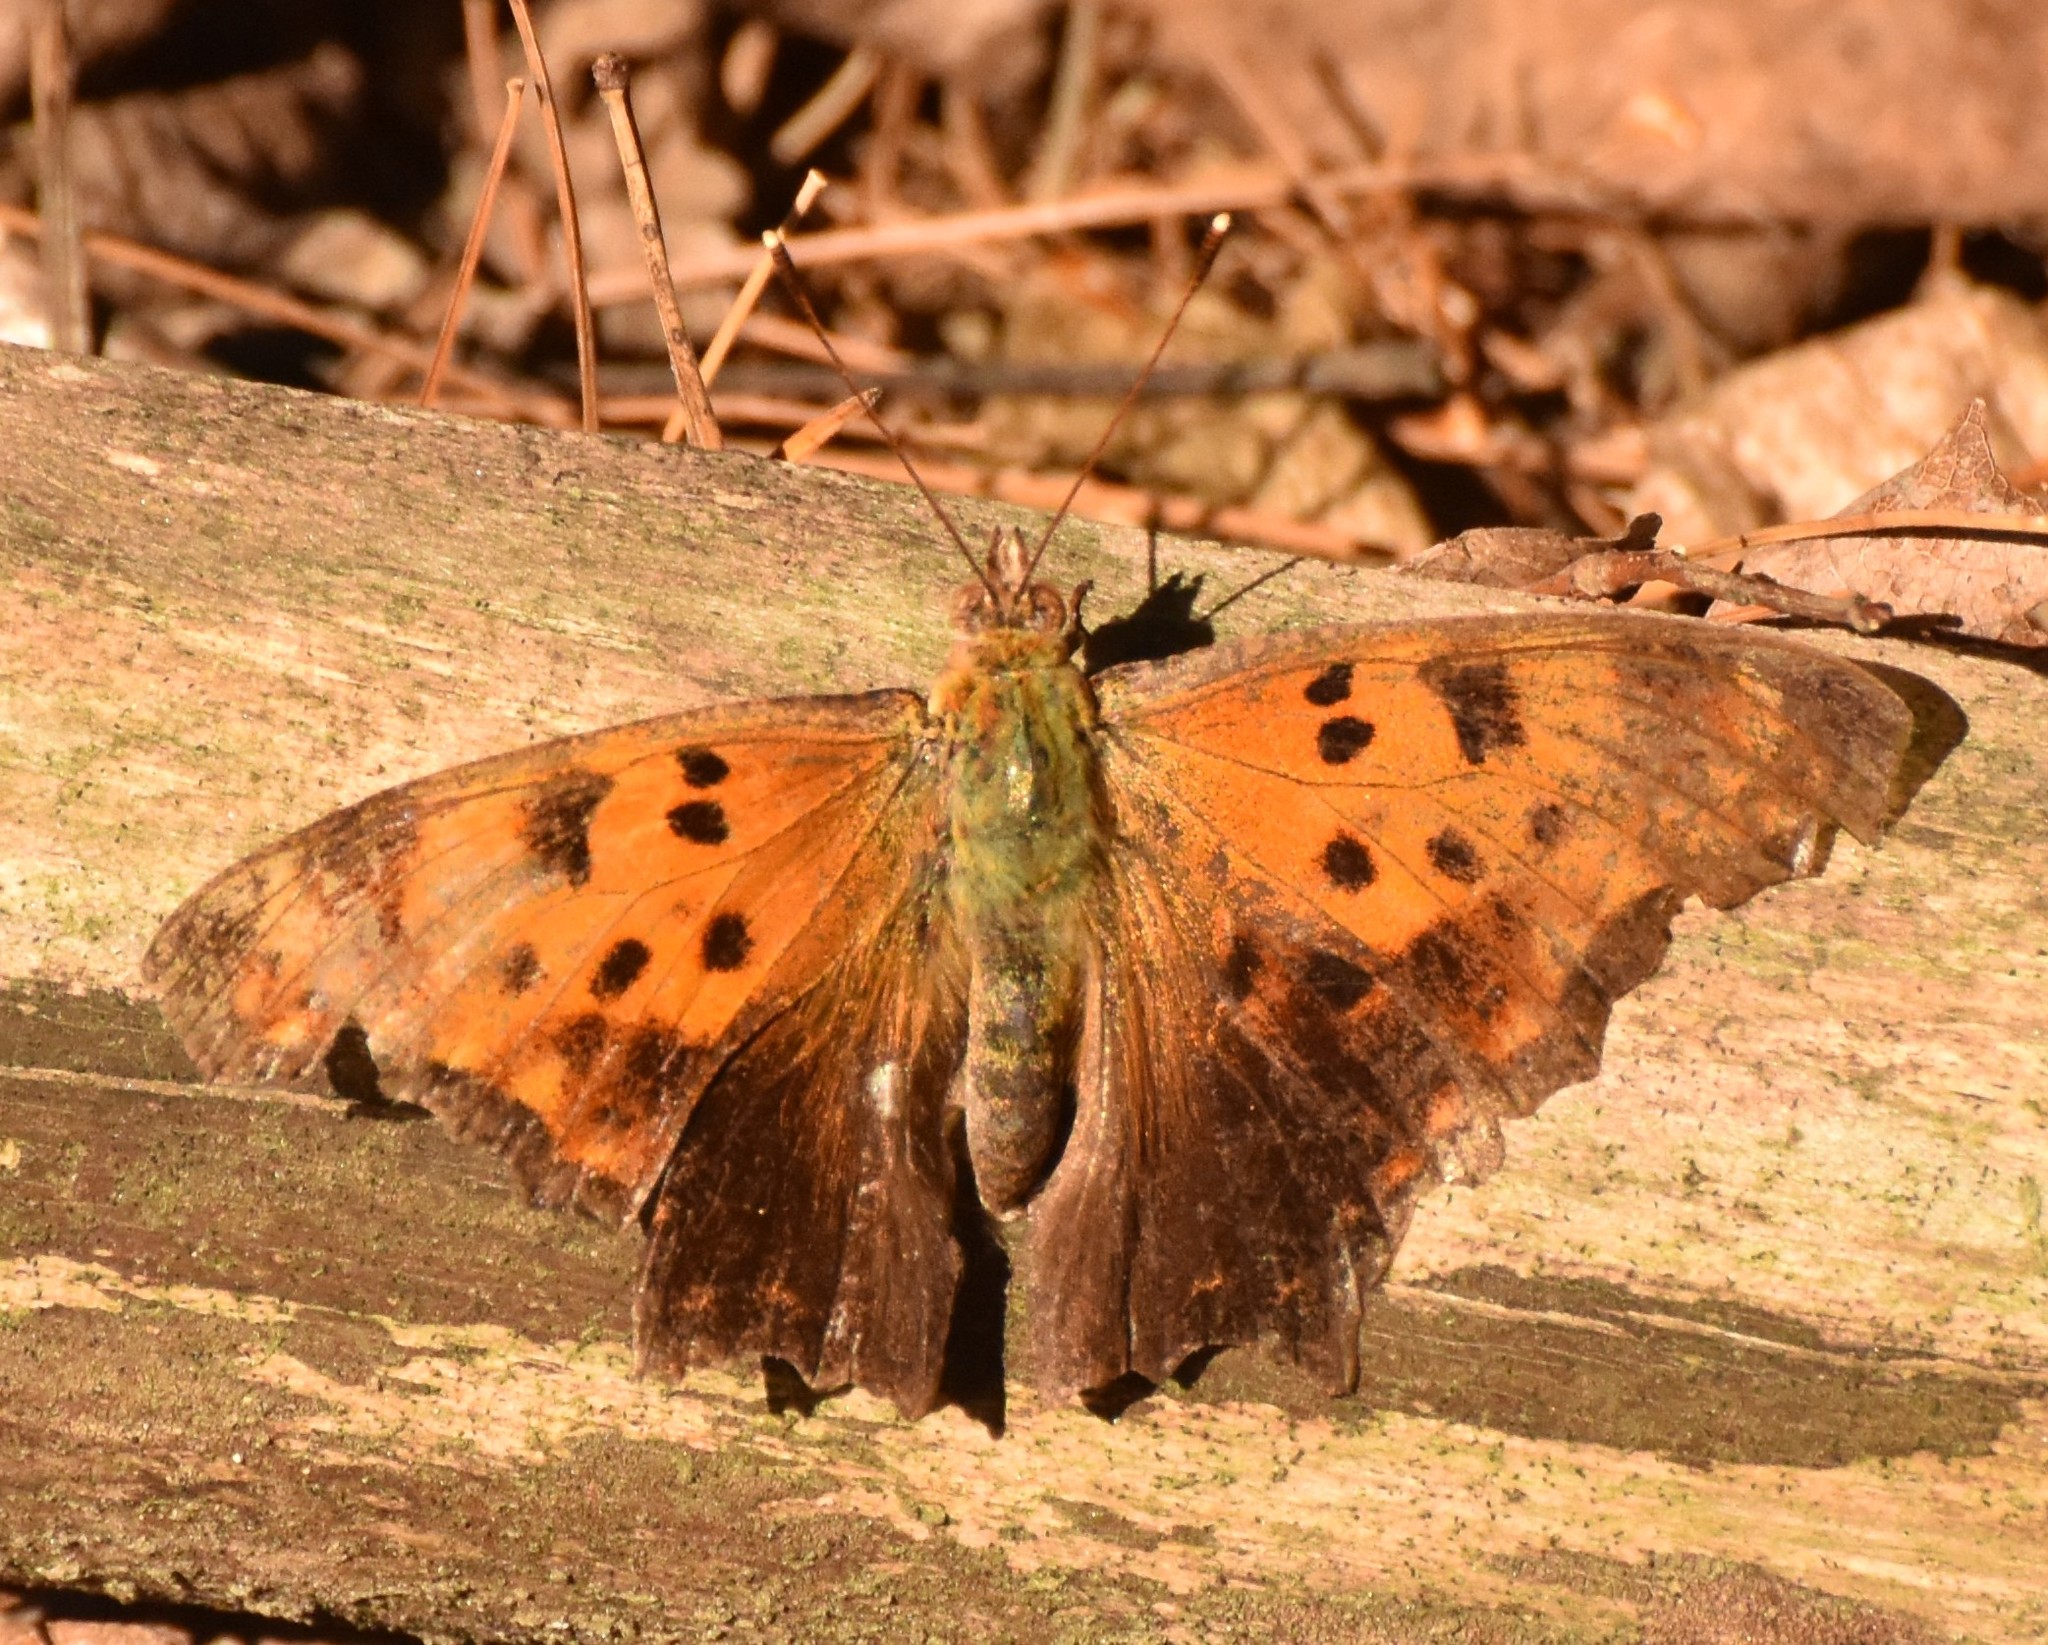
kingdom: Animalia
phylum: Arthropoda
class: Insecta
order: Lepidoptera
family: Nymphalidae
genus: Polygonia
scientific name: Polygonia comma
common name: Eastern comma
